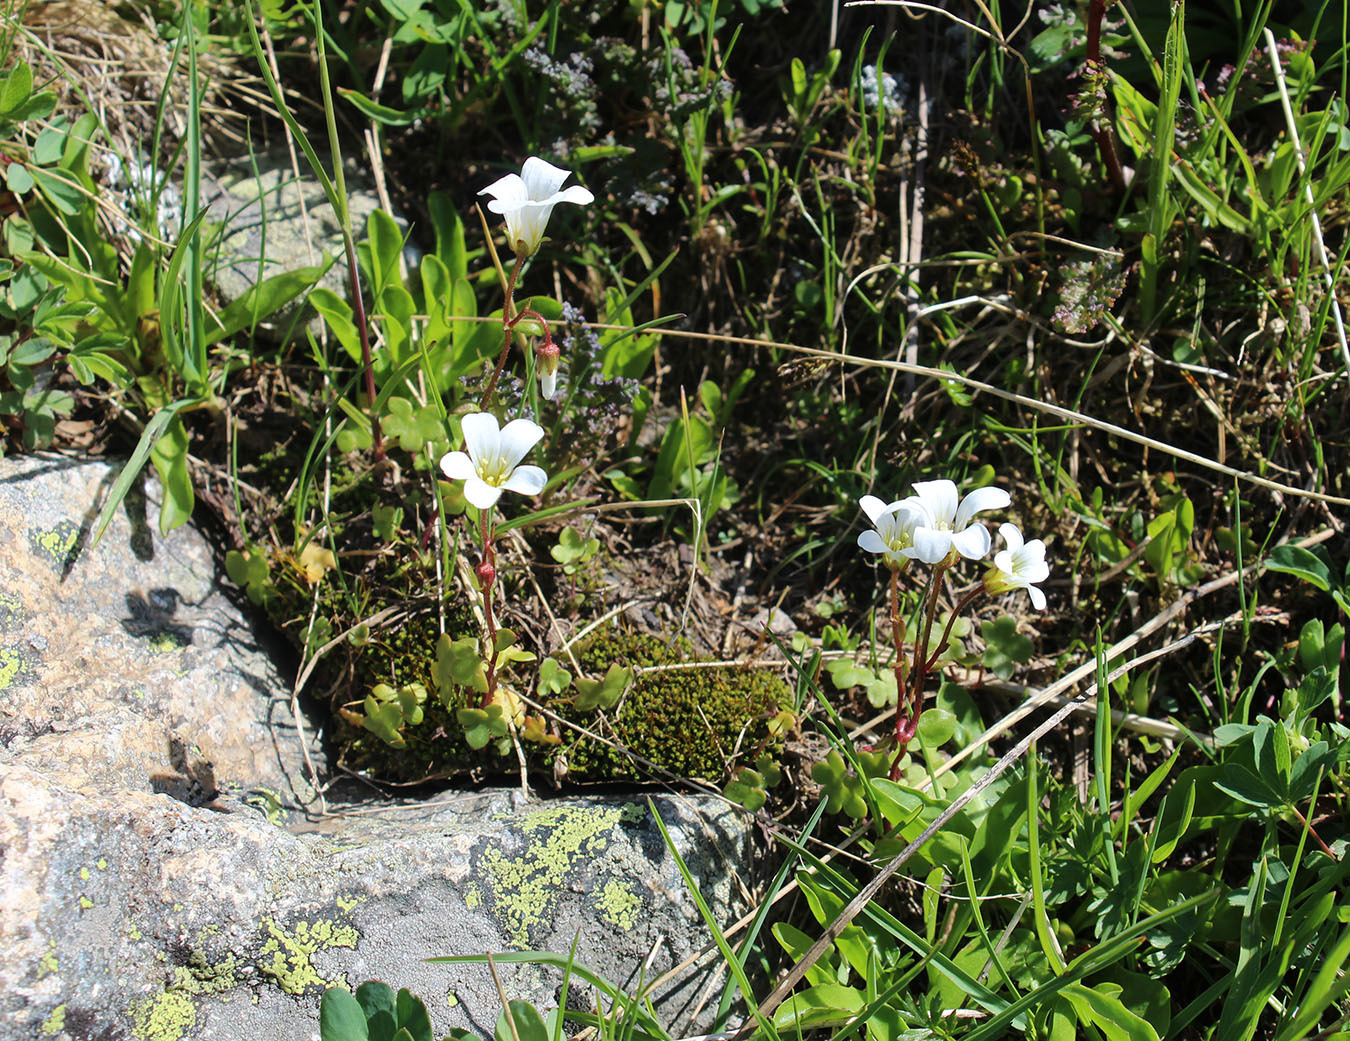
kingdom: Plantae
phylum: Tracheophyta
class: Magnoliopsida
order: Saxifragales
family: Saxifragaceae
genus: Saxifraga
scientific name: Saxifraga sibirica
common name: Siberian saxifrage
